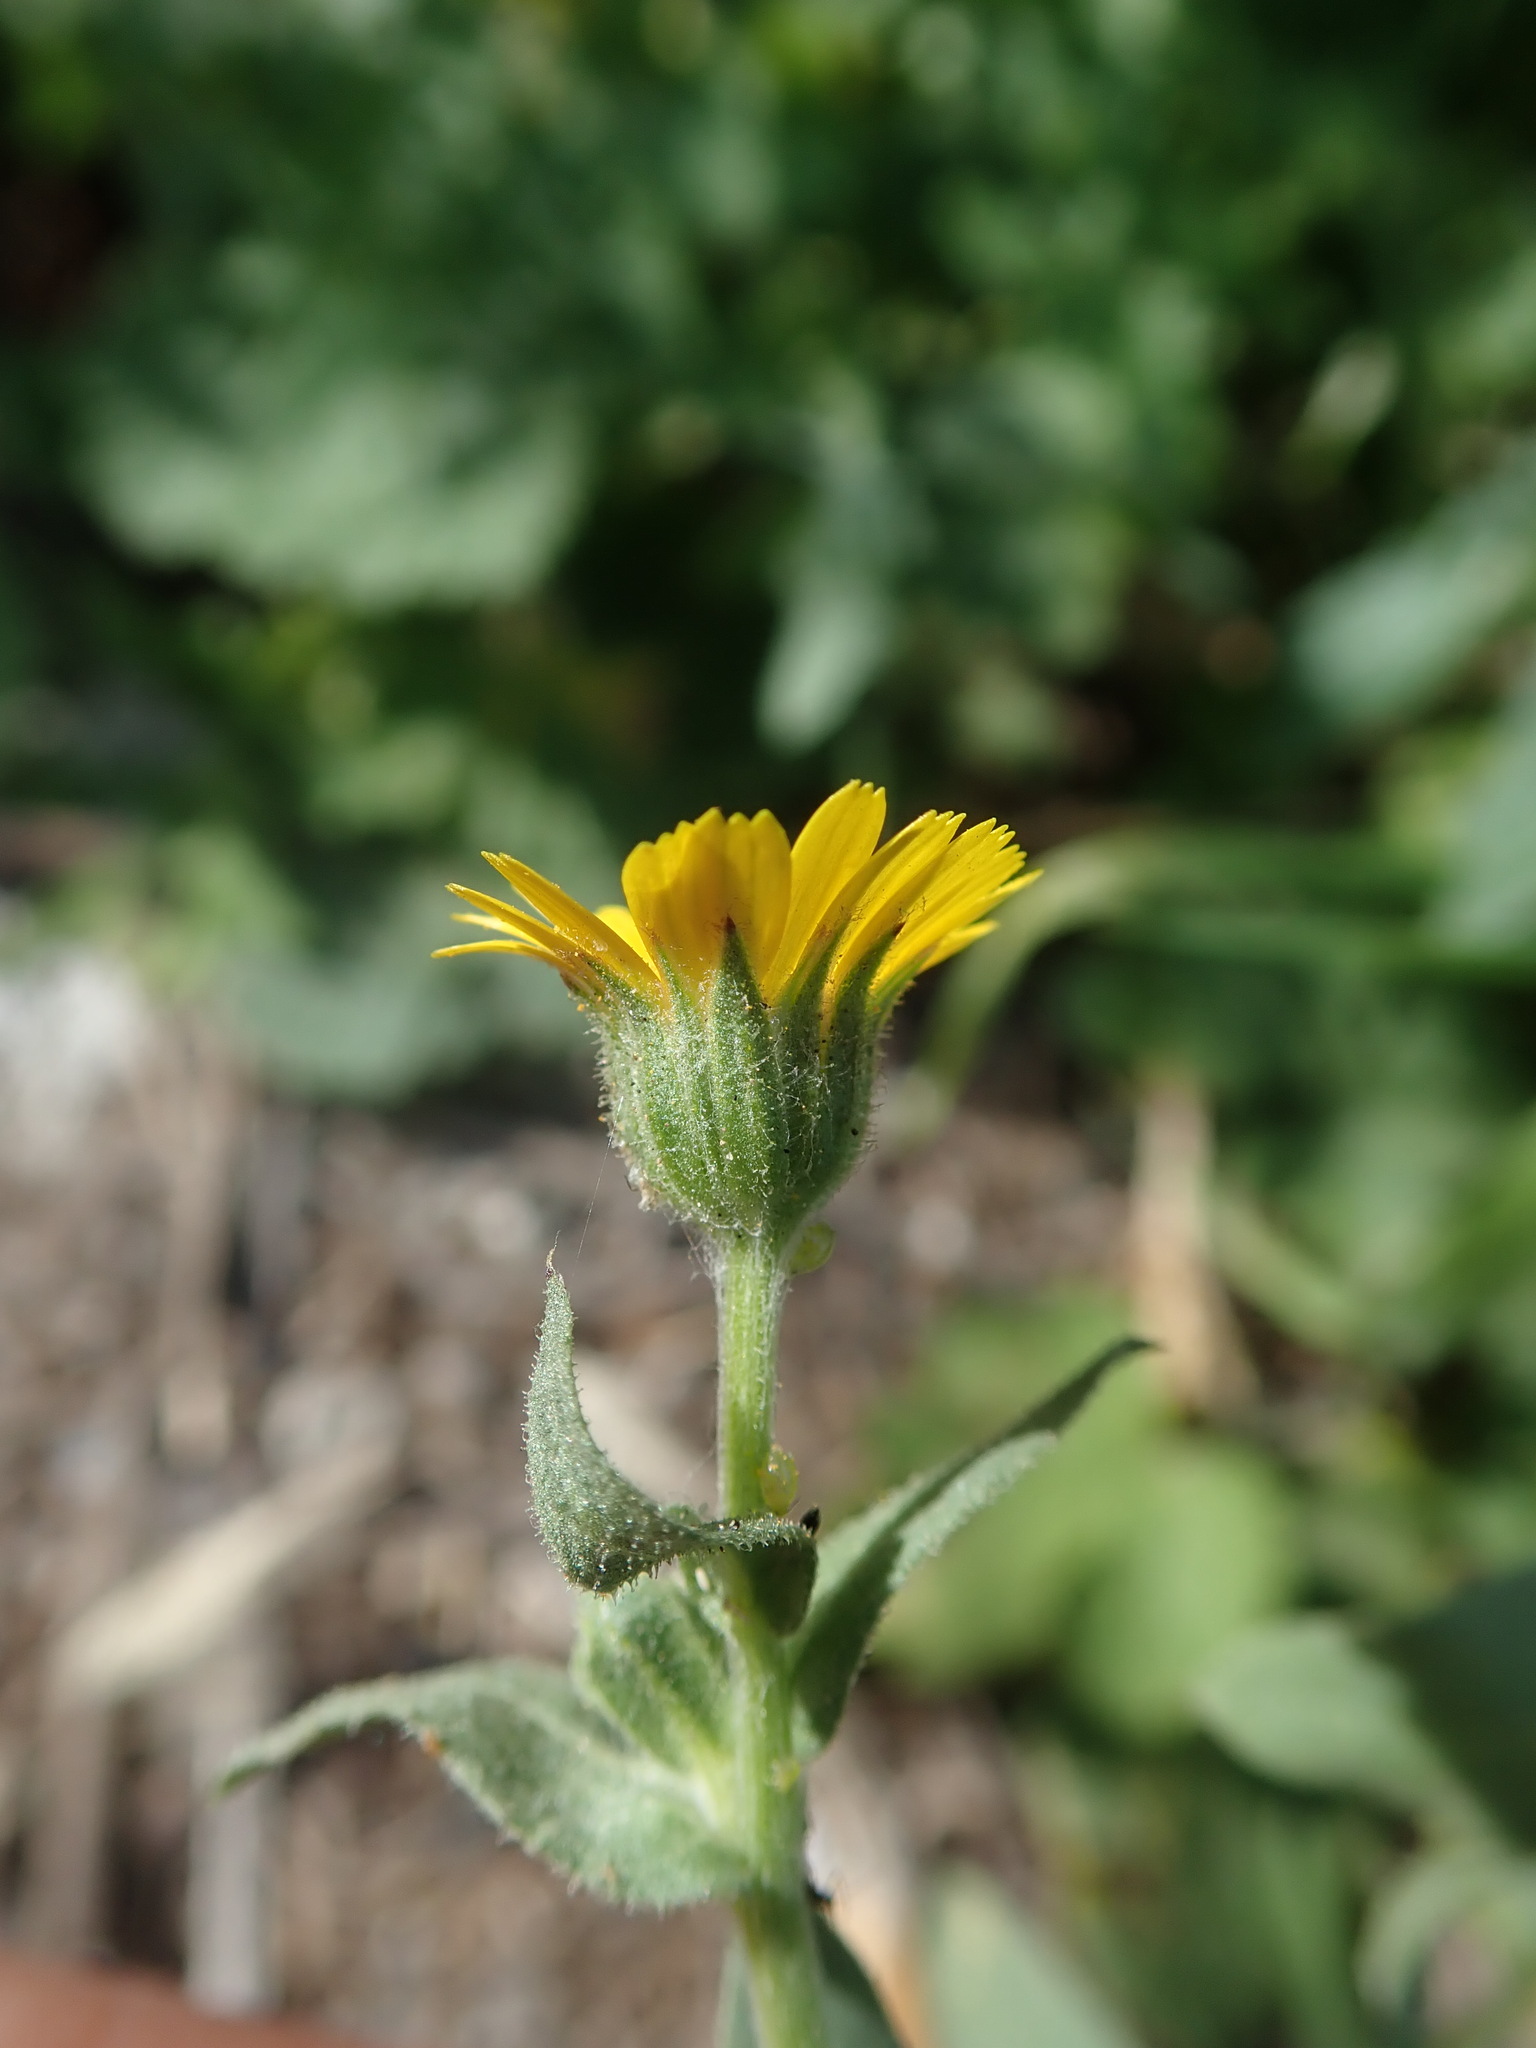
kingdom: Plantae
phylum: Tracheophyta
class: Magnoliopsida
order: Asterales
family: Asteraceae
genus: Calendula
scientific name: Calendula arvensis
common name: Field marigold
